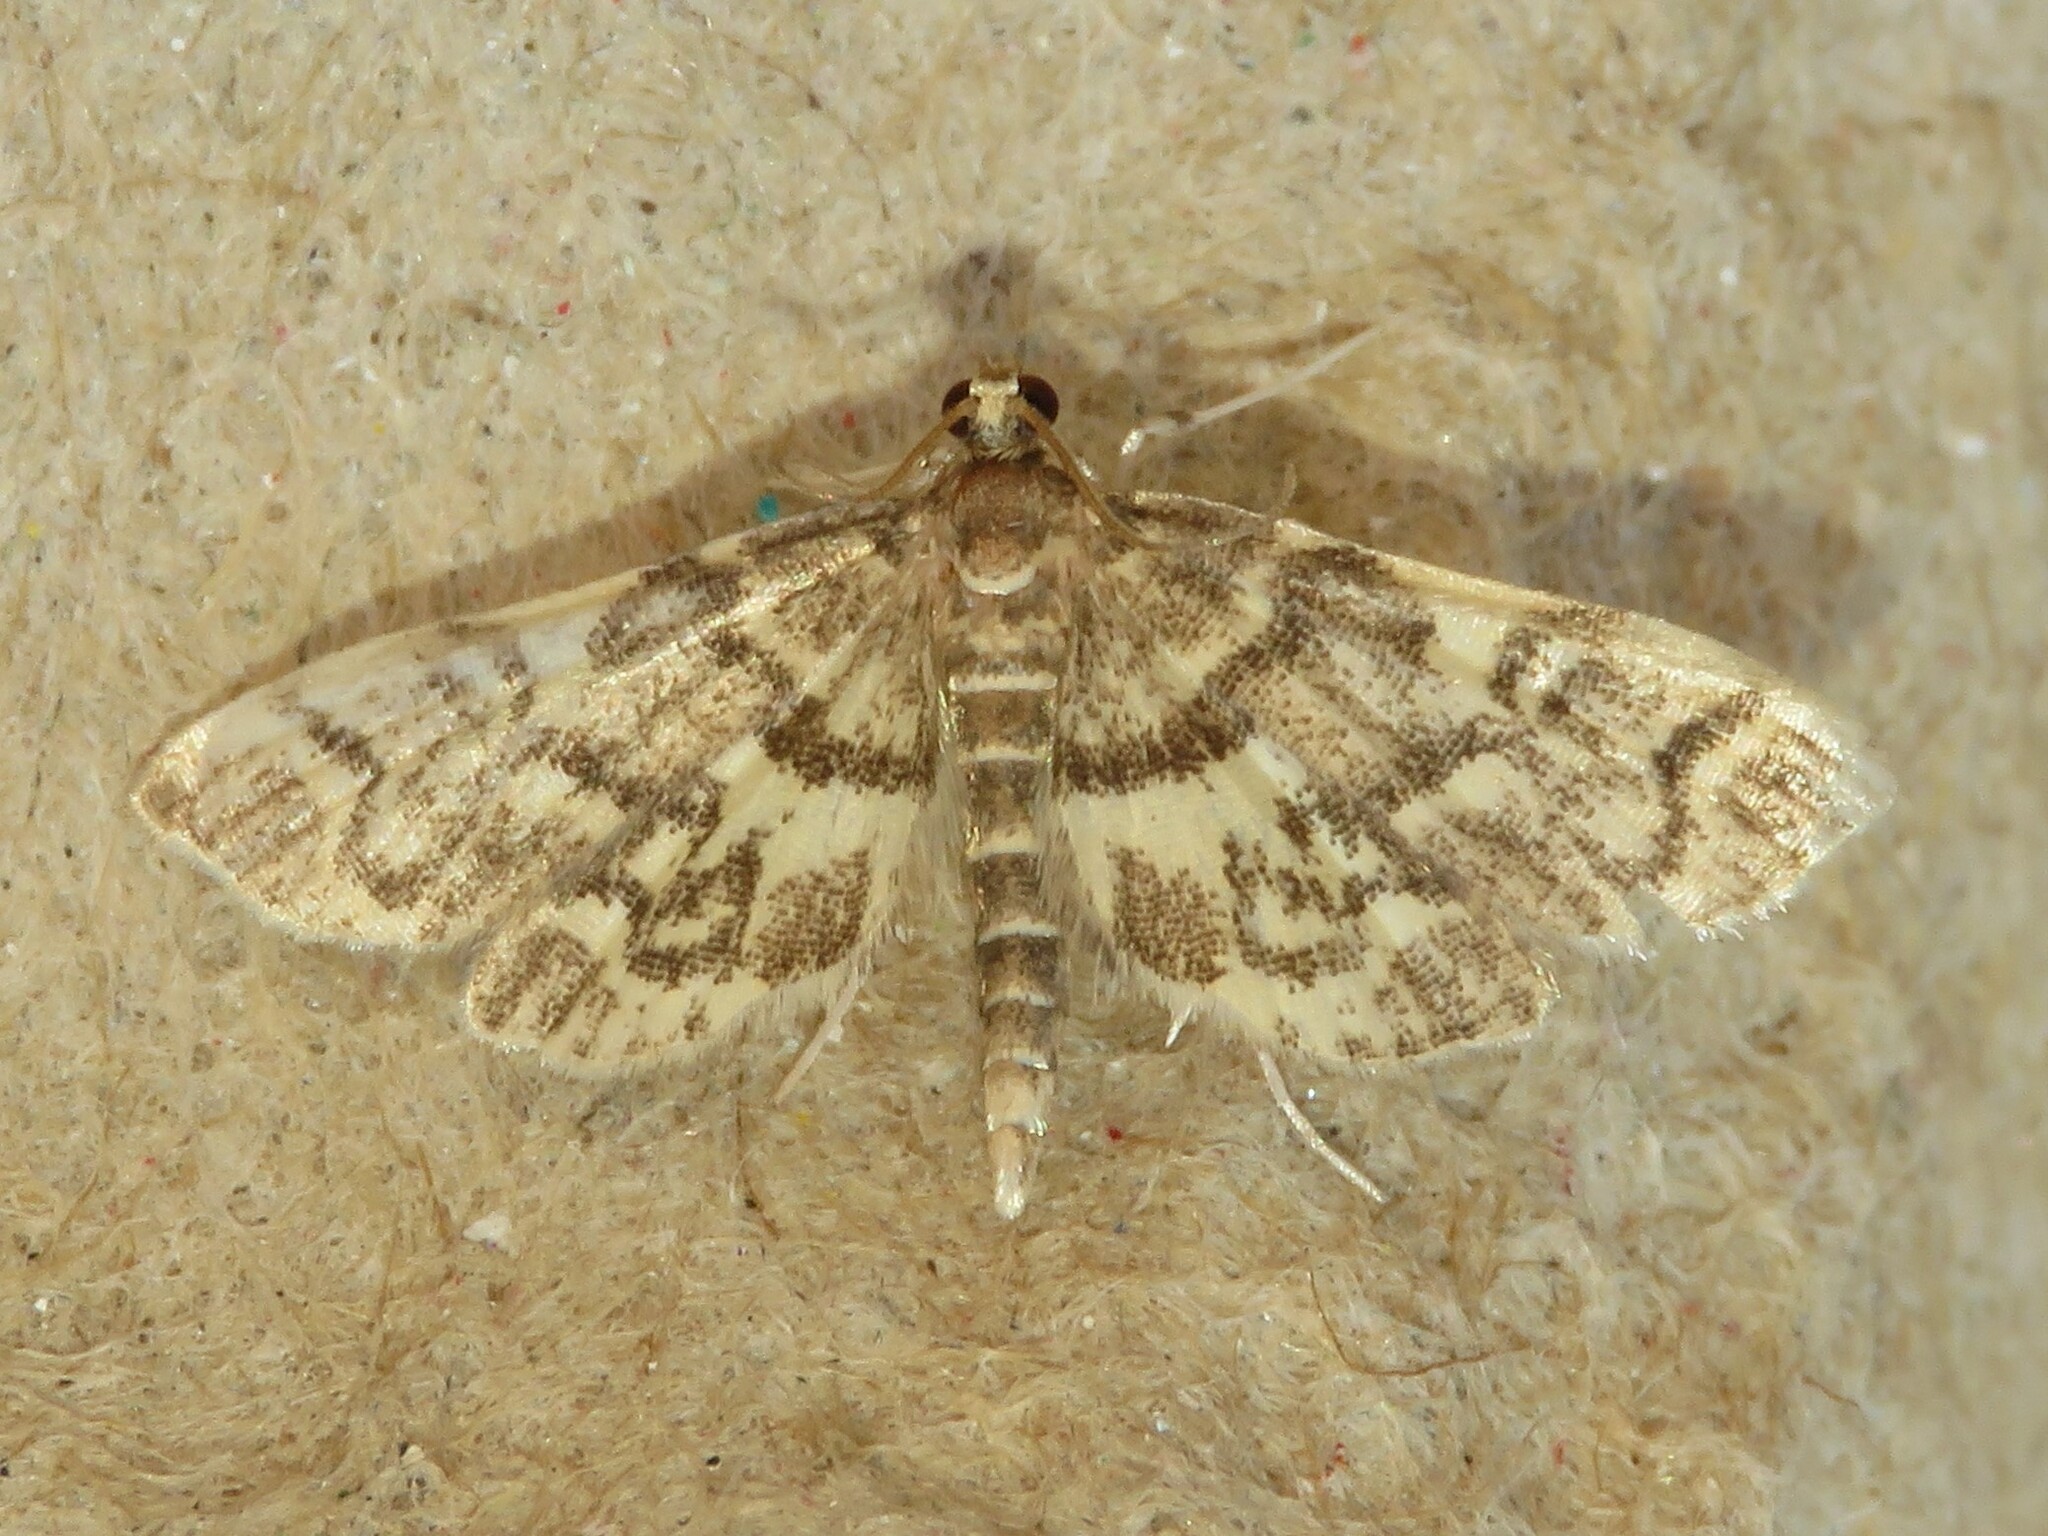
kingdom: Animalia
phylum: Arthropoda
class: Insecta
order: Lepidoptera
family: Crambidae
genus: Anageshna
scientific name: Anageshna primordialis
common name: Yellow-spotted webworm moth
